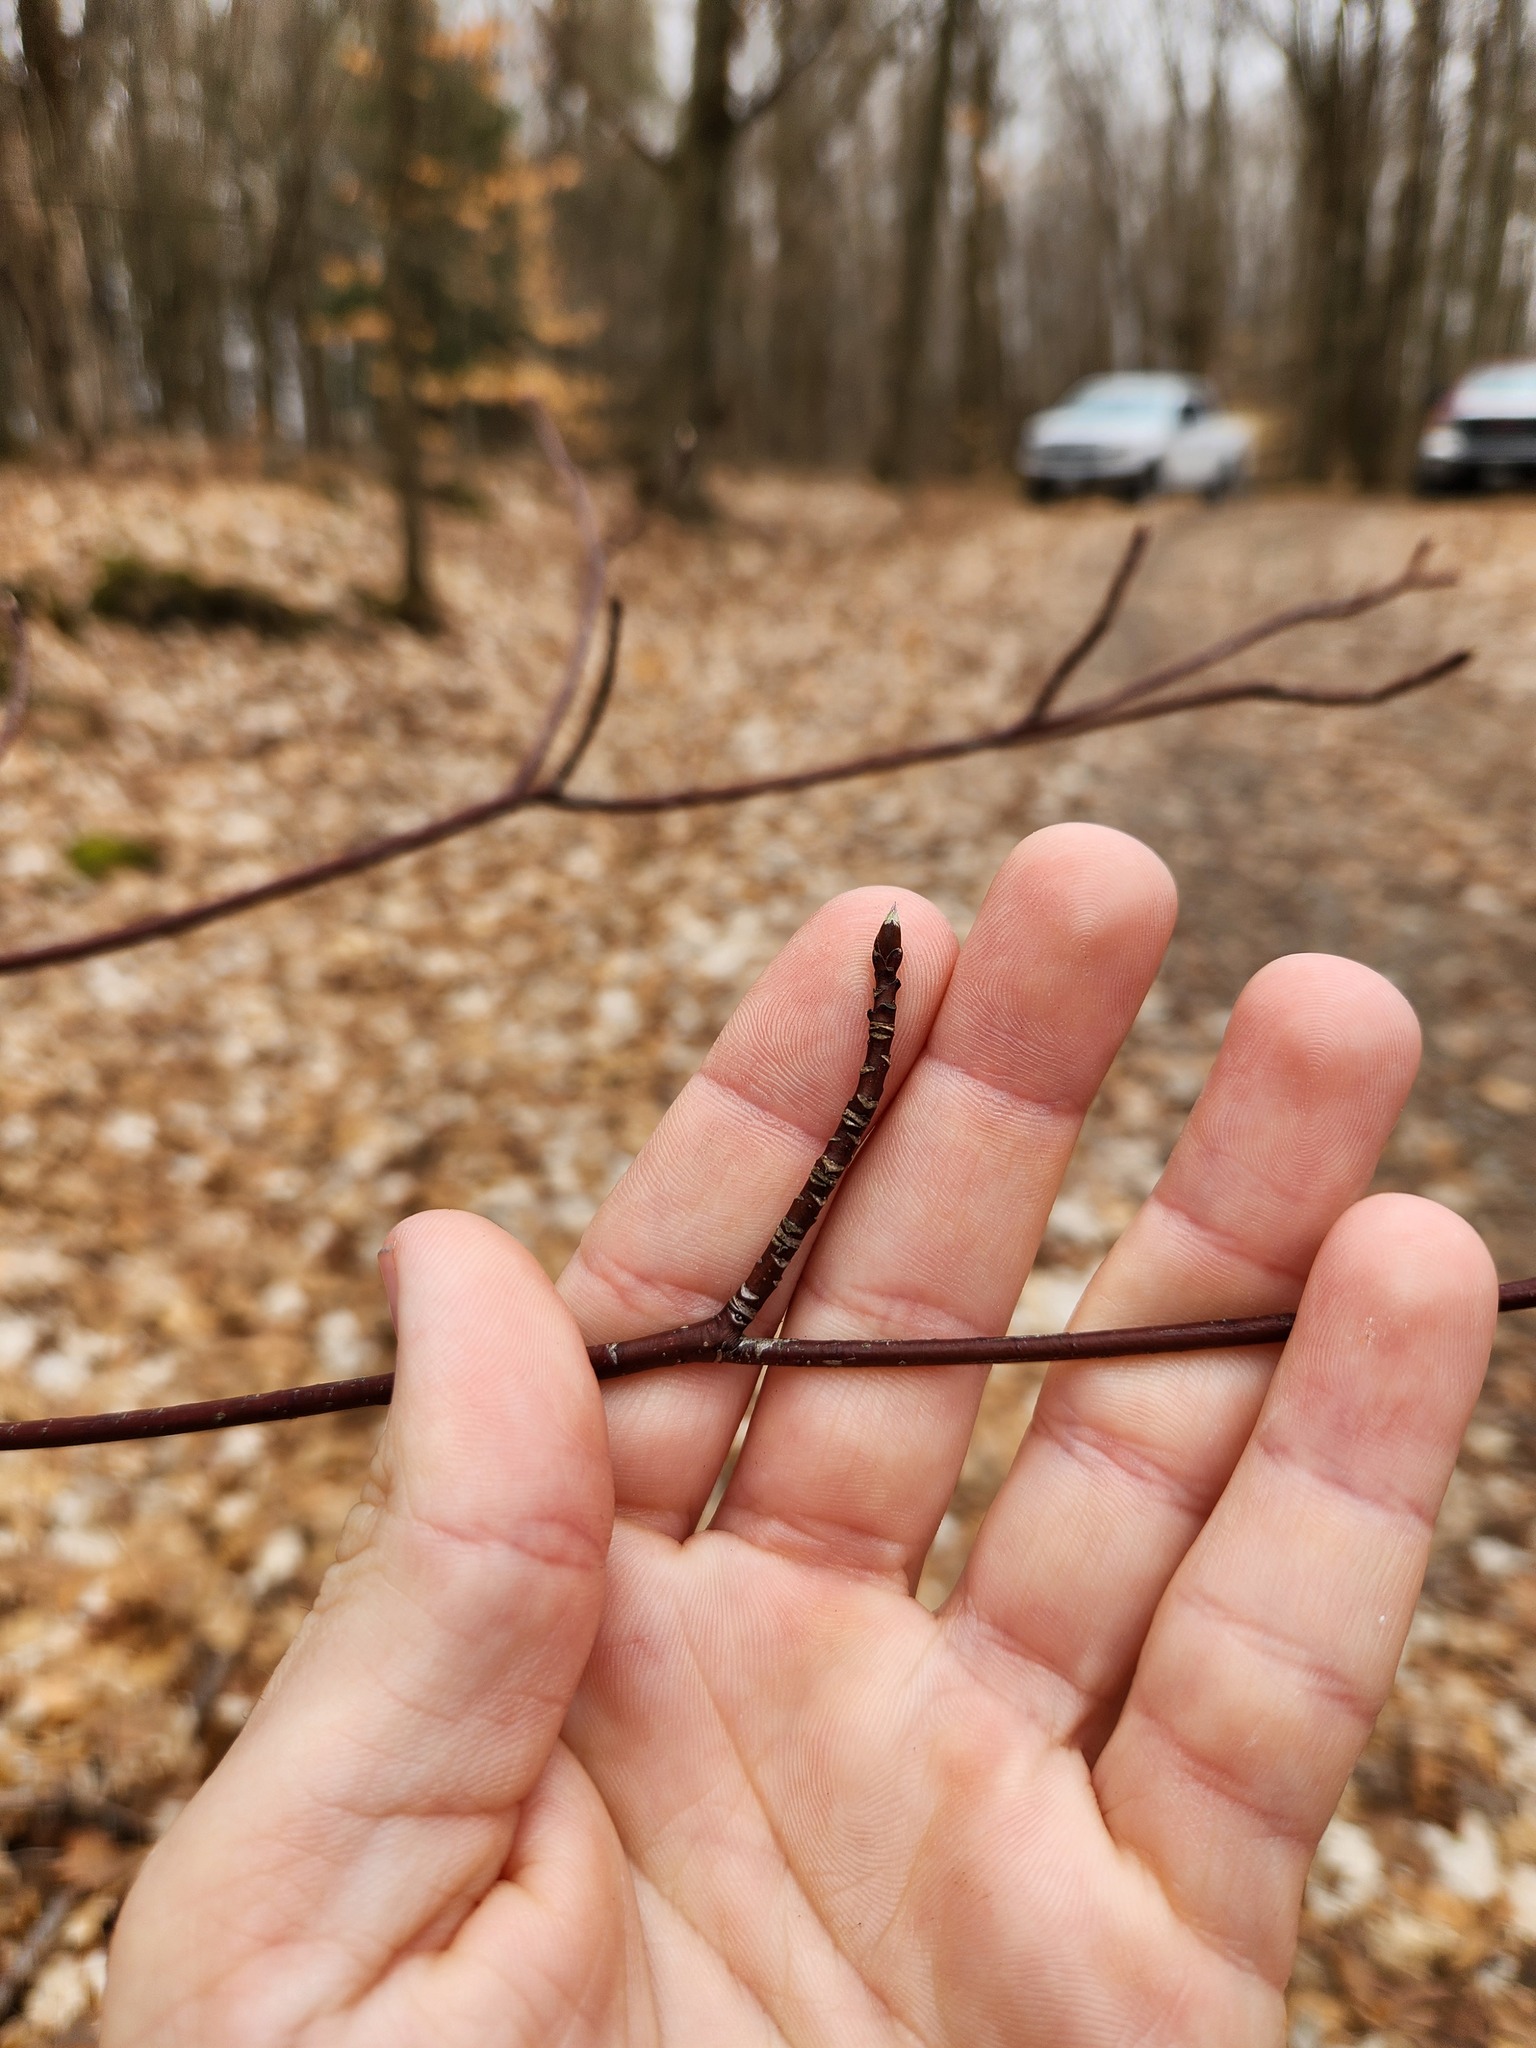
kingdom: Plantae
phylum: Tracheophyta
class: Magnoliopsida
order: Cornales
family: Cornaceae
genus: Cornus
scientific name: Cornus alternifolia
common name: Pagoda dogwood
